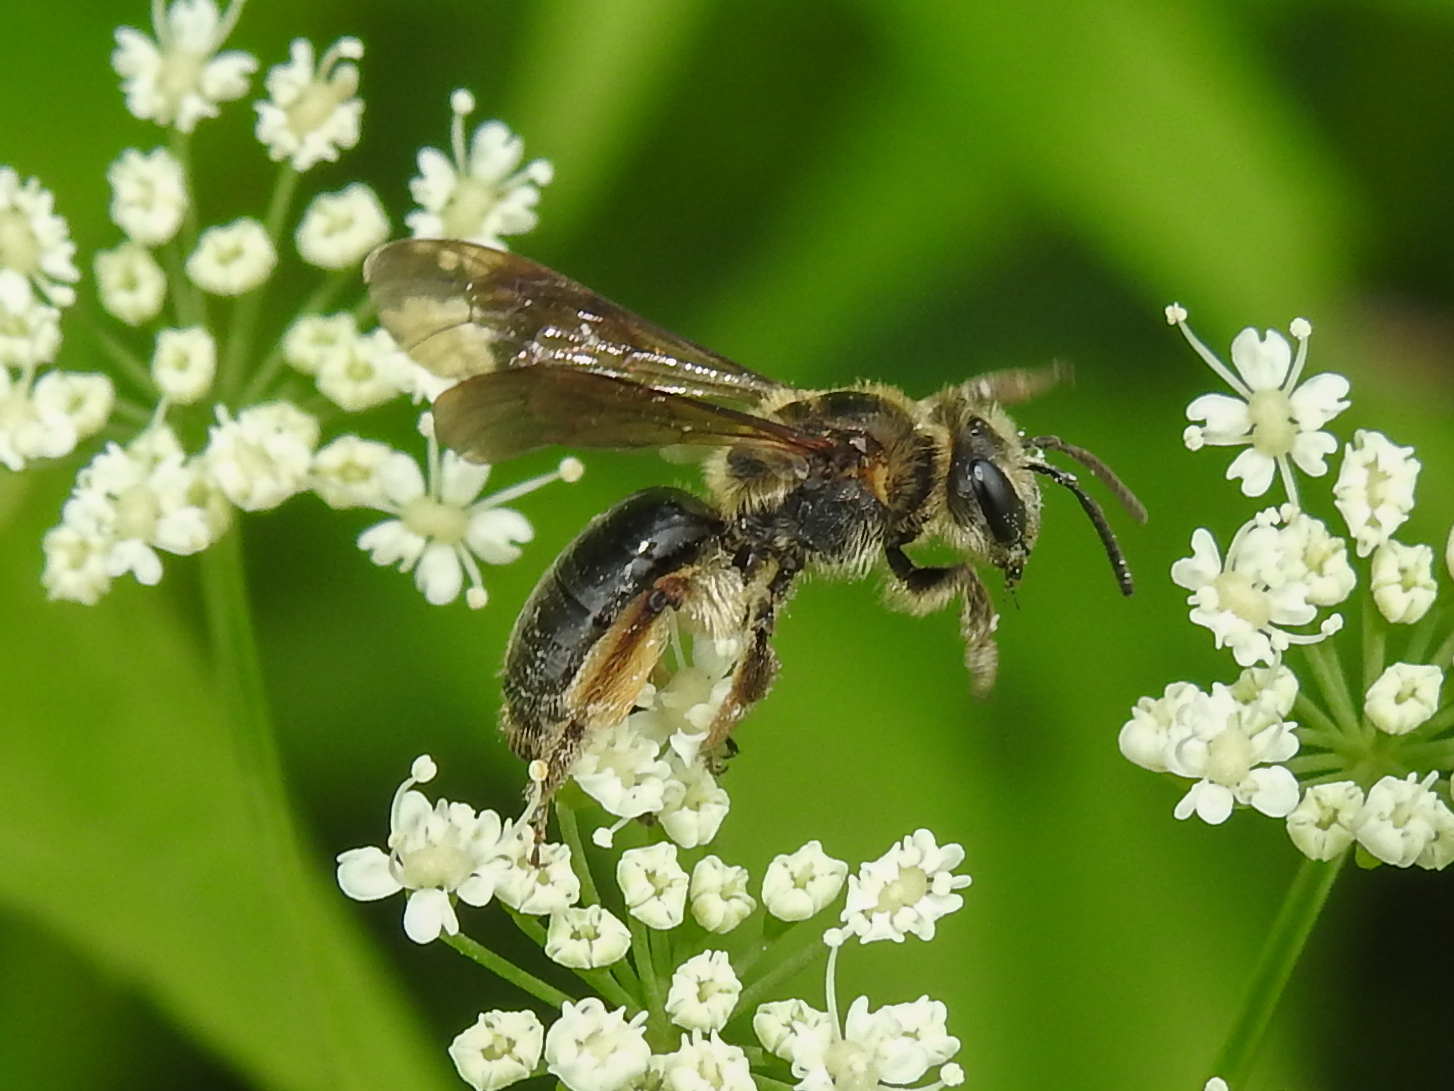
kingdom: Animalia
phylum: Arthropoda
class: Insecta
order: Hymenoptera
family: Andrenidae
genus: Andrena
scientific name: Andrena crataegi
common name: Hawthorn mining bee
